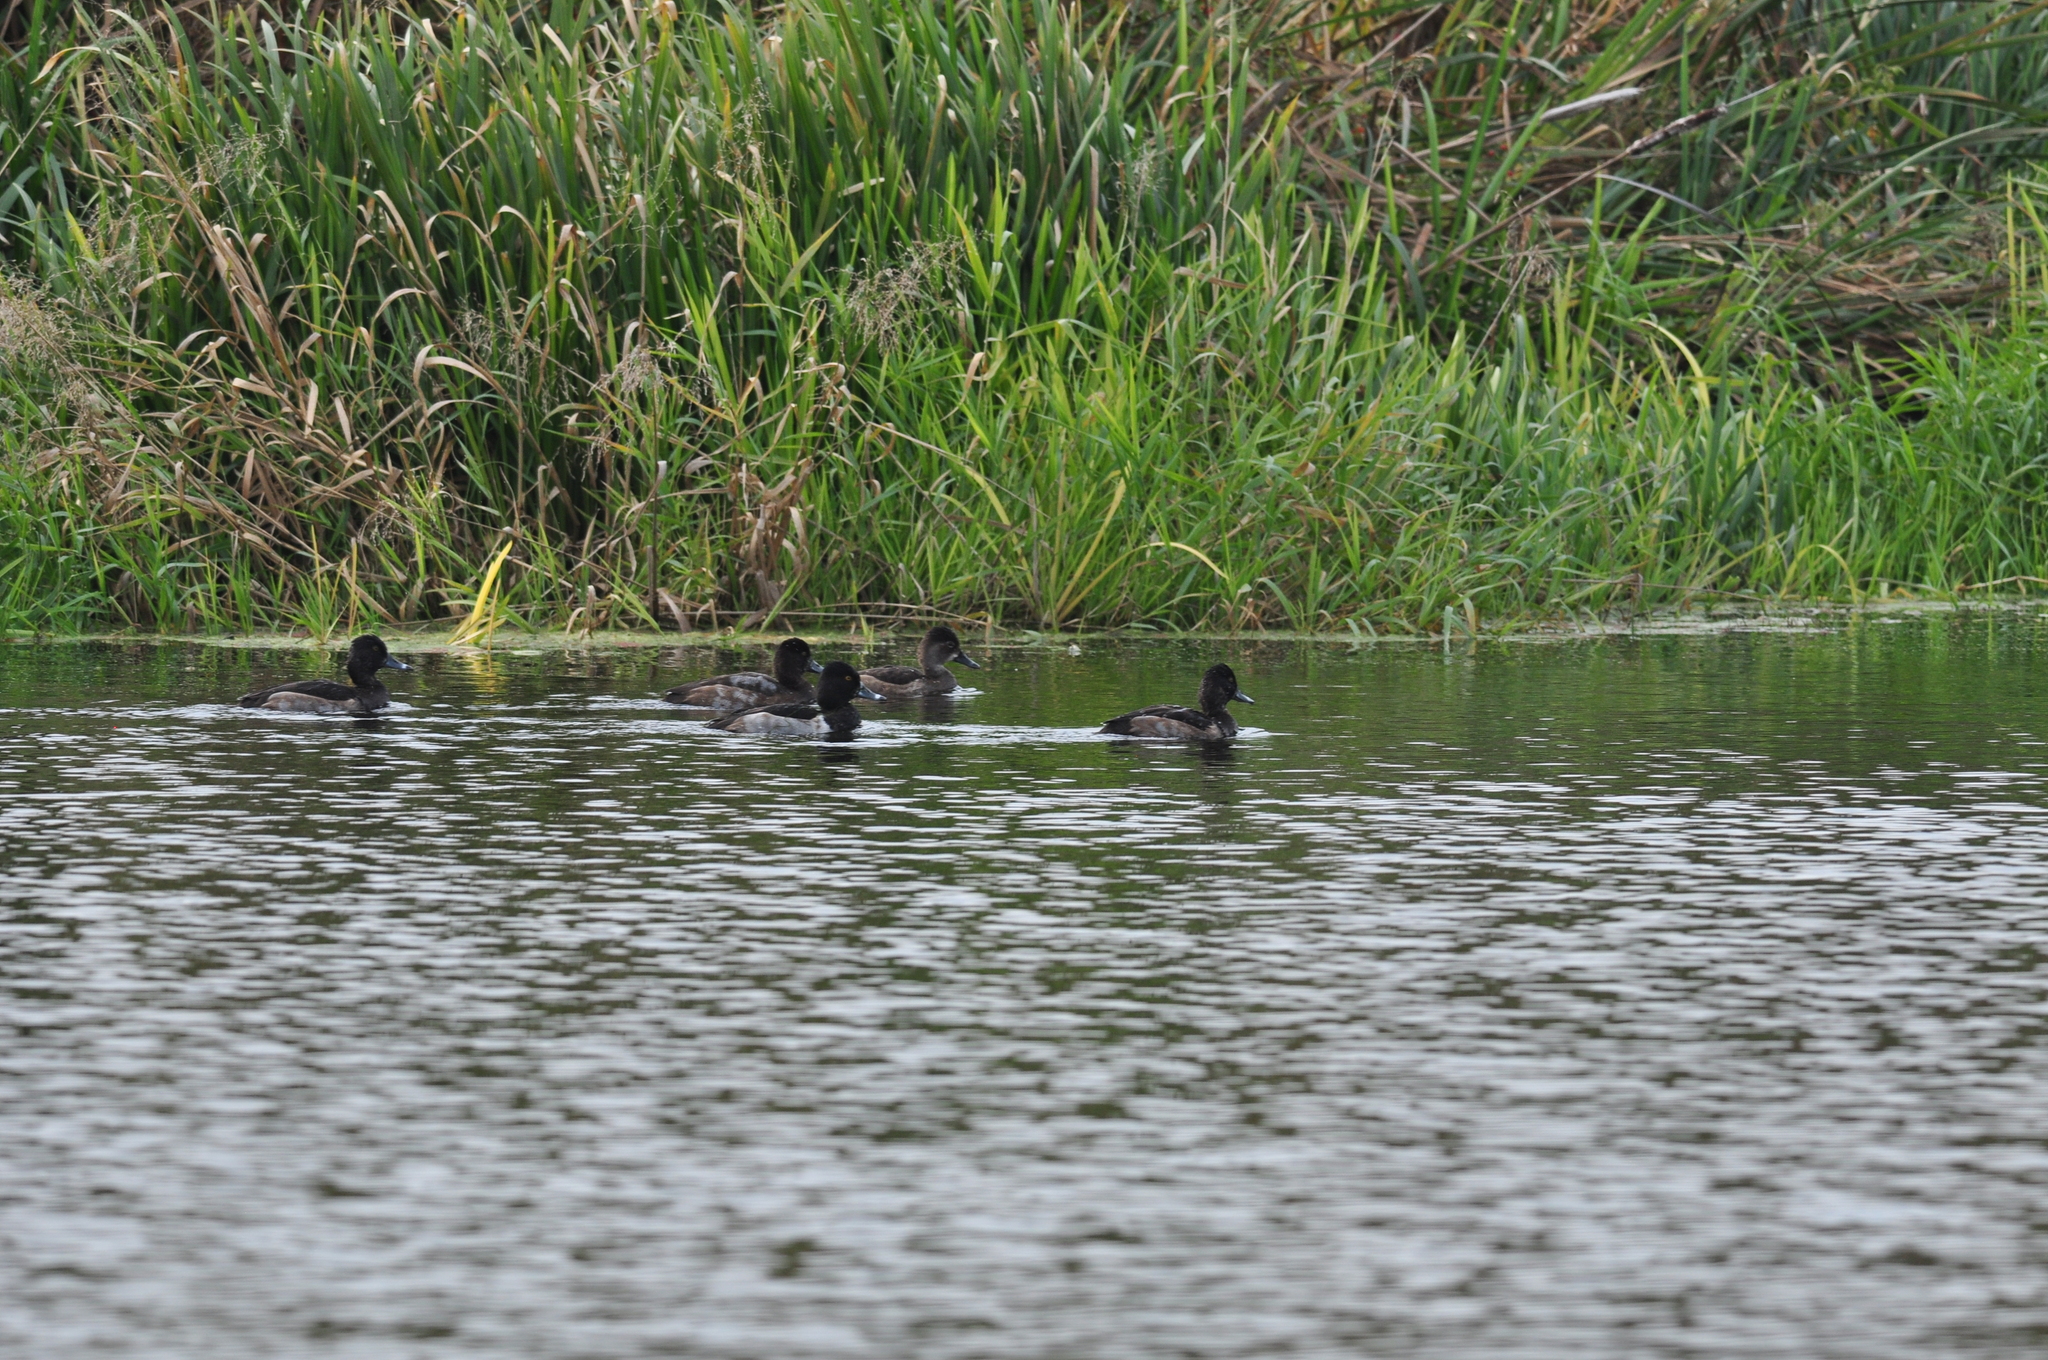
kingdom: Animalia
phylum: Chordata
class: Aves
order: Anseriformes
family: Anatidae
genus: Aythya
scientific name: Aythya collaris
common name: Ring-necked duck
